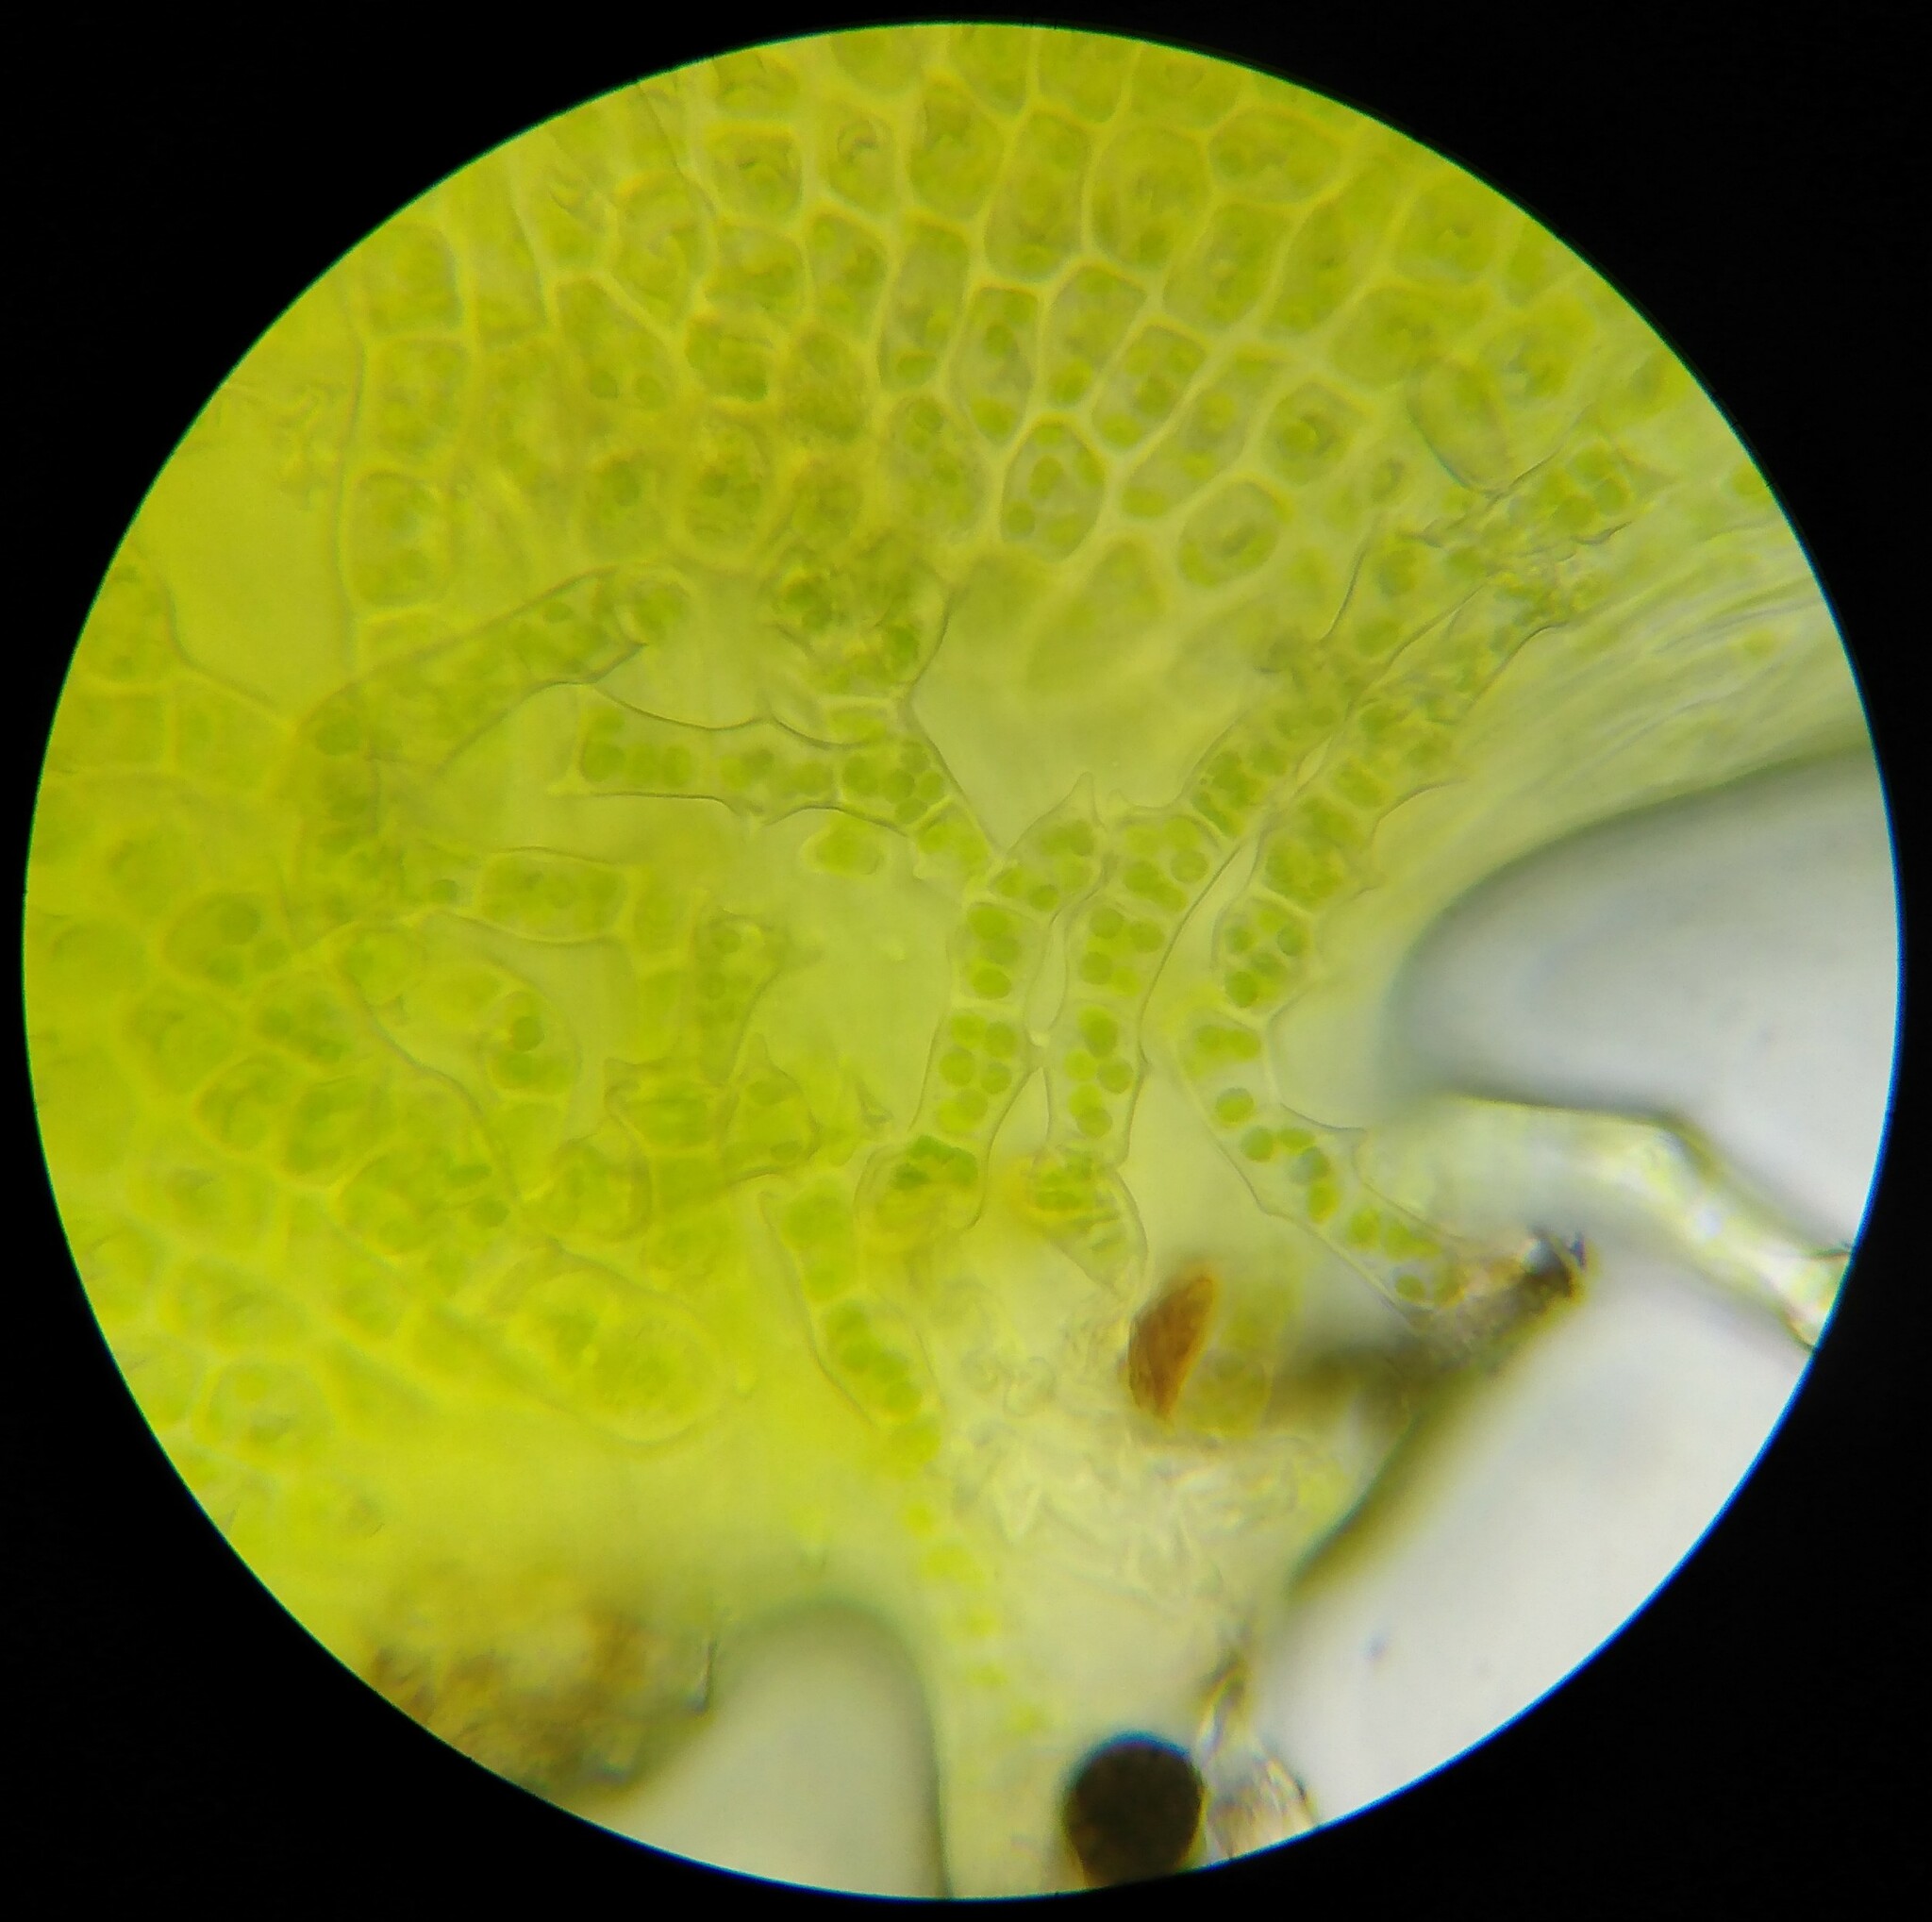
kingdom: Plantae
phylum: Bryophyta
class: Bryopsida
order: Hypnales
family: Thuidiaceae
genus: Thuidium
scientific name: Thuidium delicatulum
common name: Delicate fern moss
